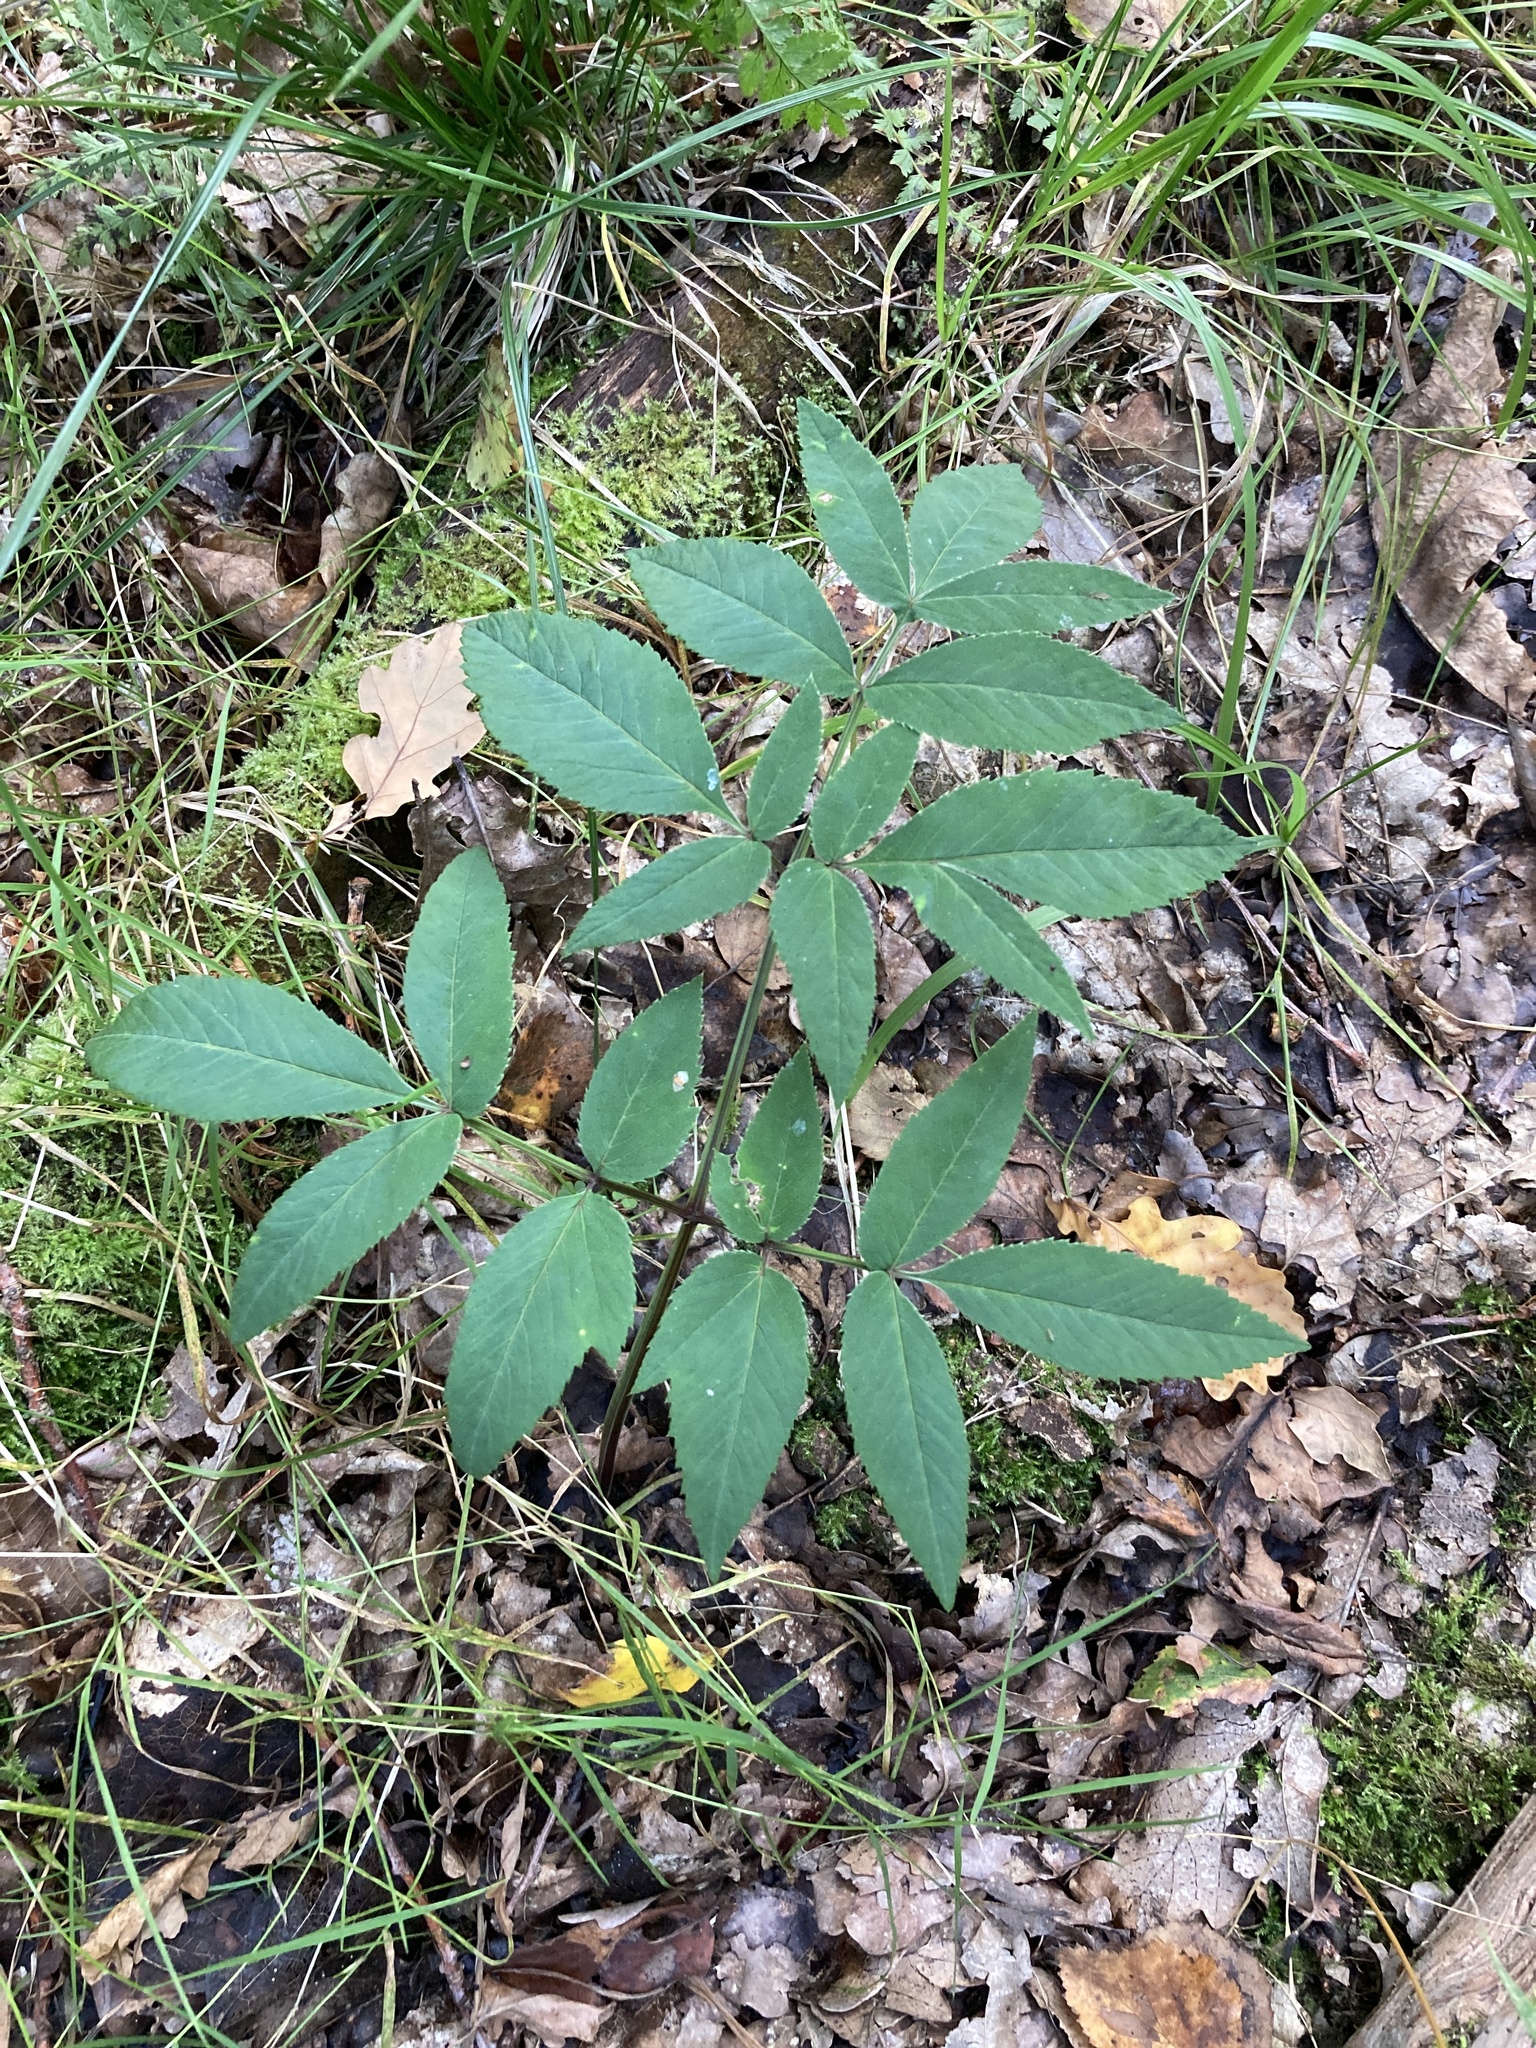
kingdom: Plantae
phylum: Tracheophyta
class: Magnoliopsida
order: Apiales
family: Apiaceae
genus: Angelica
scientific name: Angelica sylvestris
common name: Wild angelica
